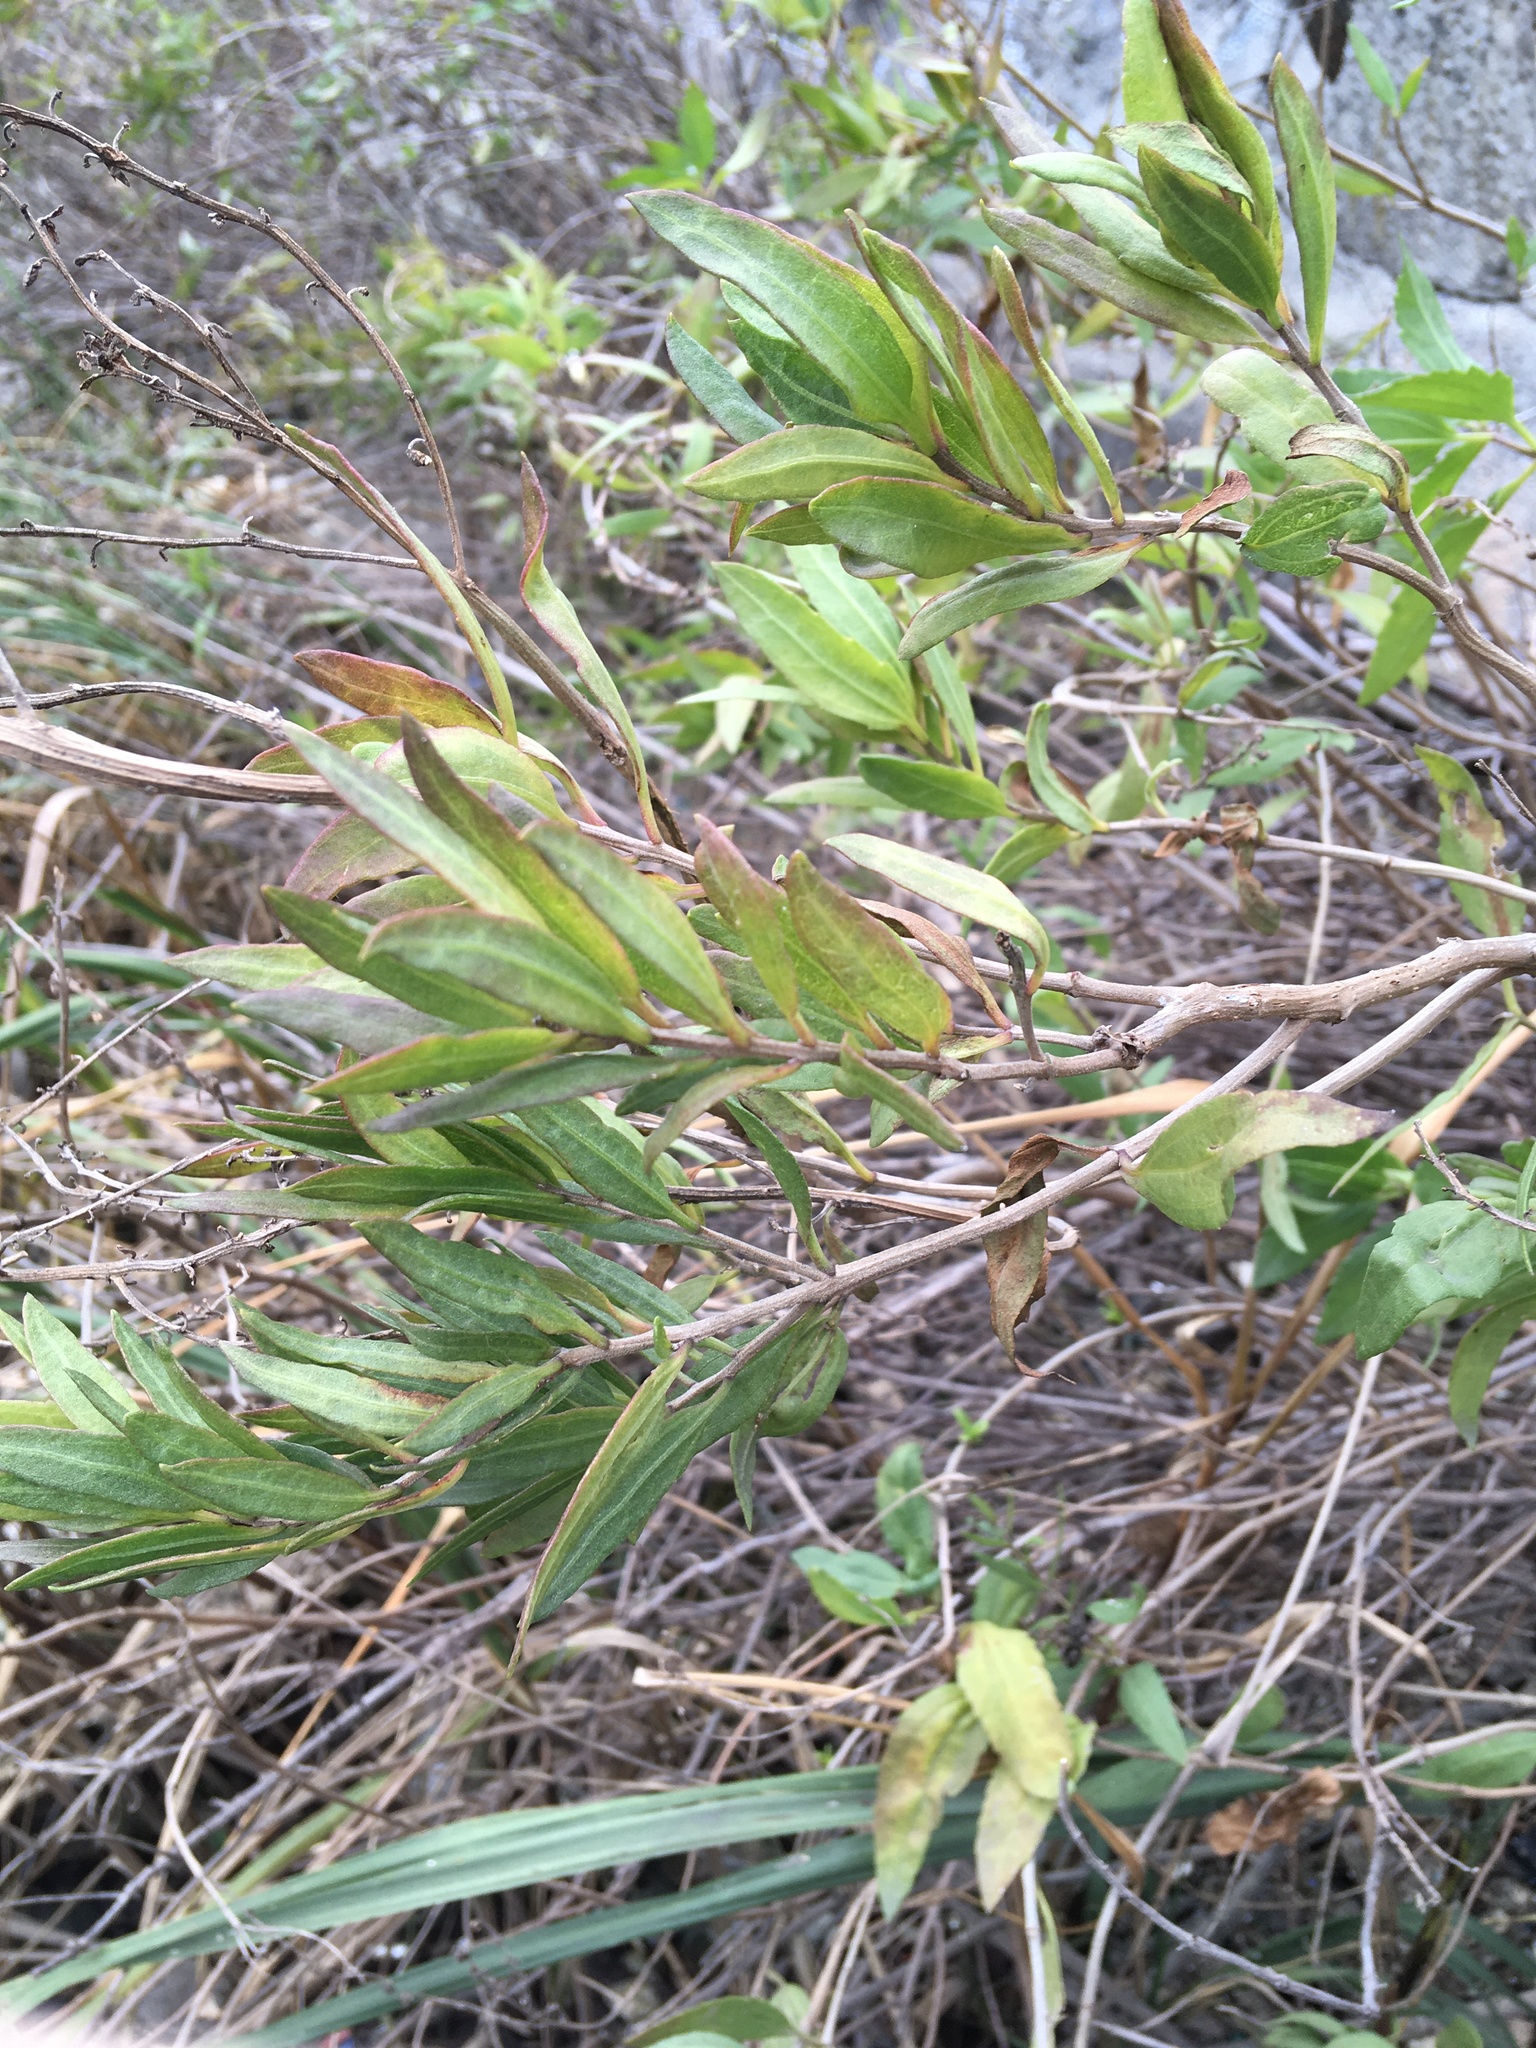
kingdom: Plantae
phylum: Tracheophyta
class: Magnoliopsida
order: Asterales
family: Asteraceae
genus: Iva
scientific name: Iva frutescens
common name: Big-leaved marsh-elder
